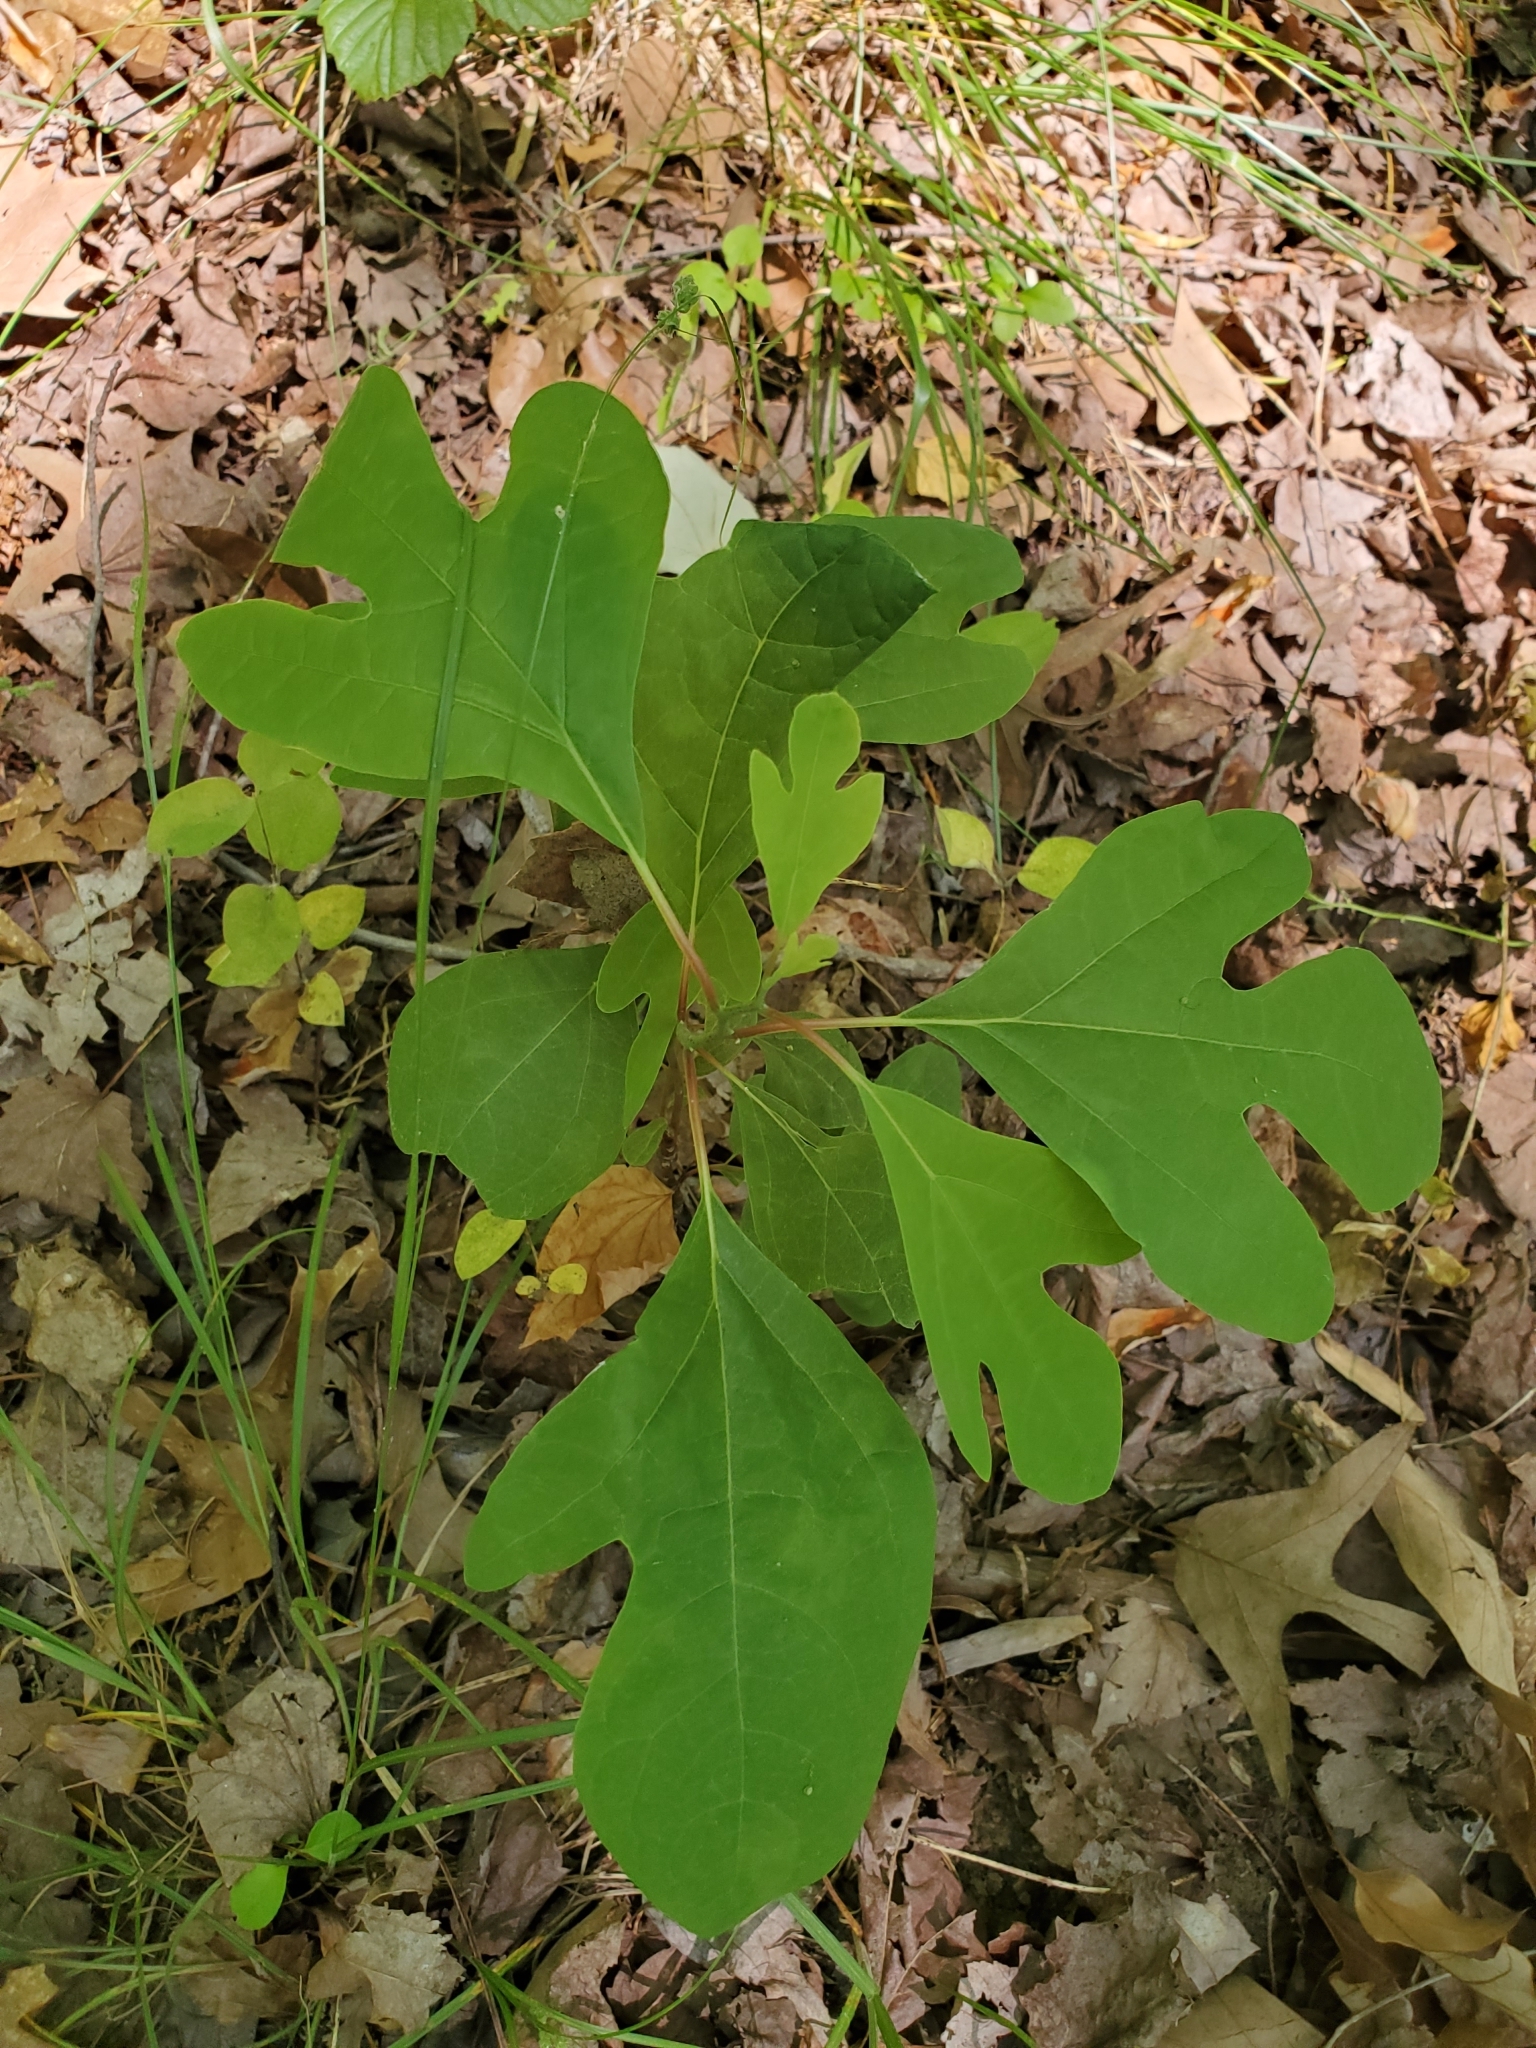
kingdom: Plantae
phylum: Tracheophyta
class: Magnoliopsida
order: Laurales
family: Lauraceae
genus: Sassafras
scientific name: Sassafras albidum
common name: Sassafras
